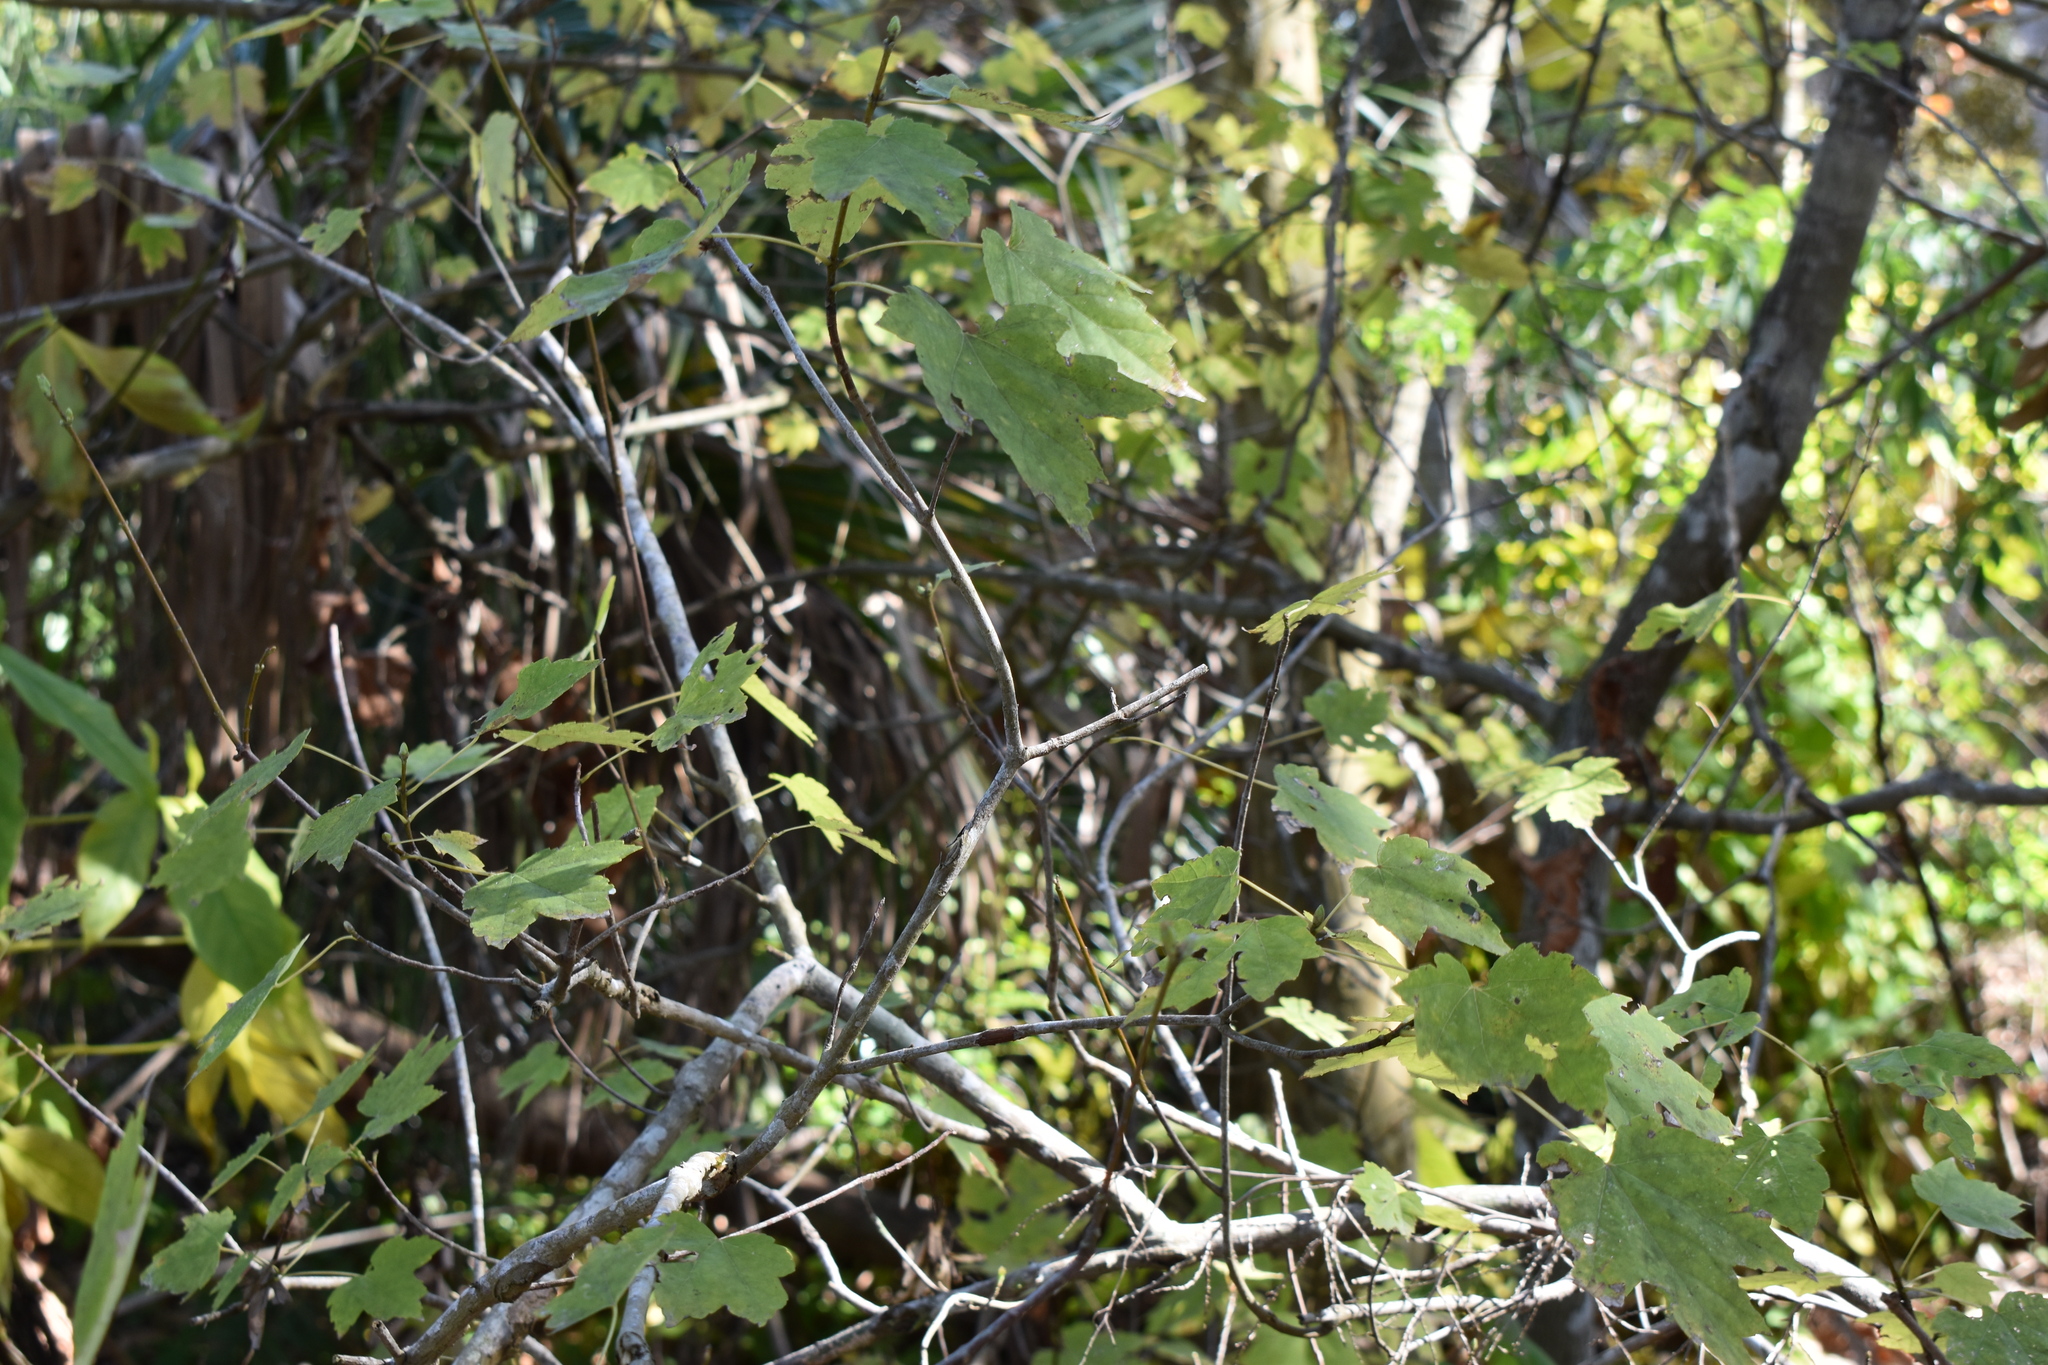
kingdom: Plantae
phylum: Tracheophyta
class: Magnoliopsida
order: Sapindales
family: Sapindaceae
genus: Acer
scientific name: Acer rubrum
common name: Red maple
